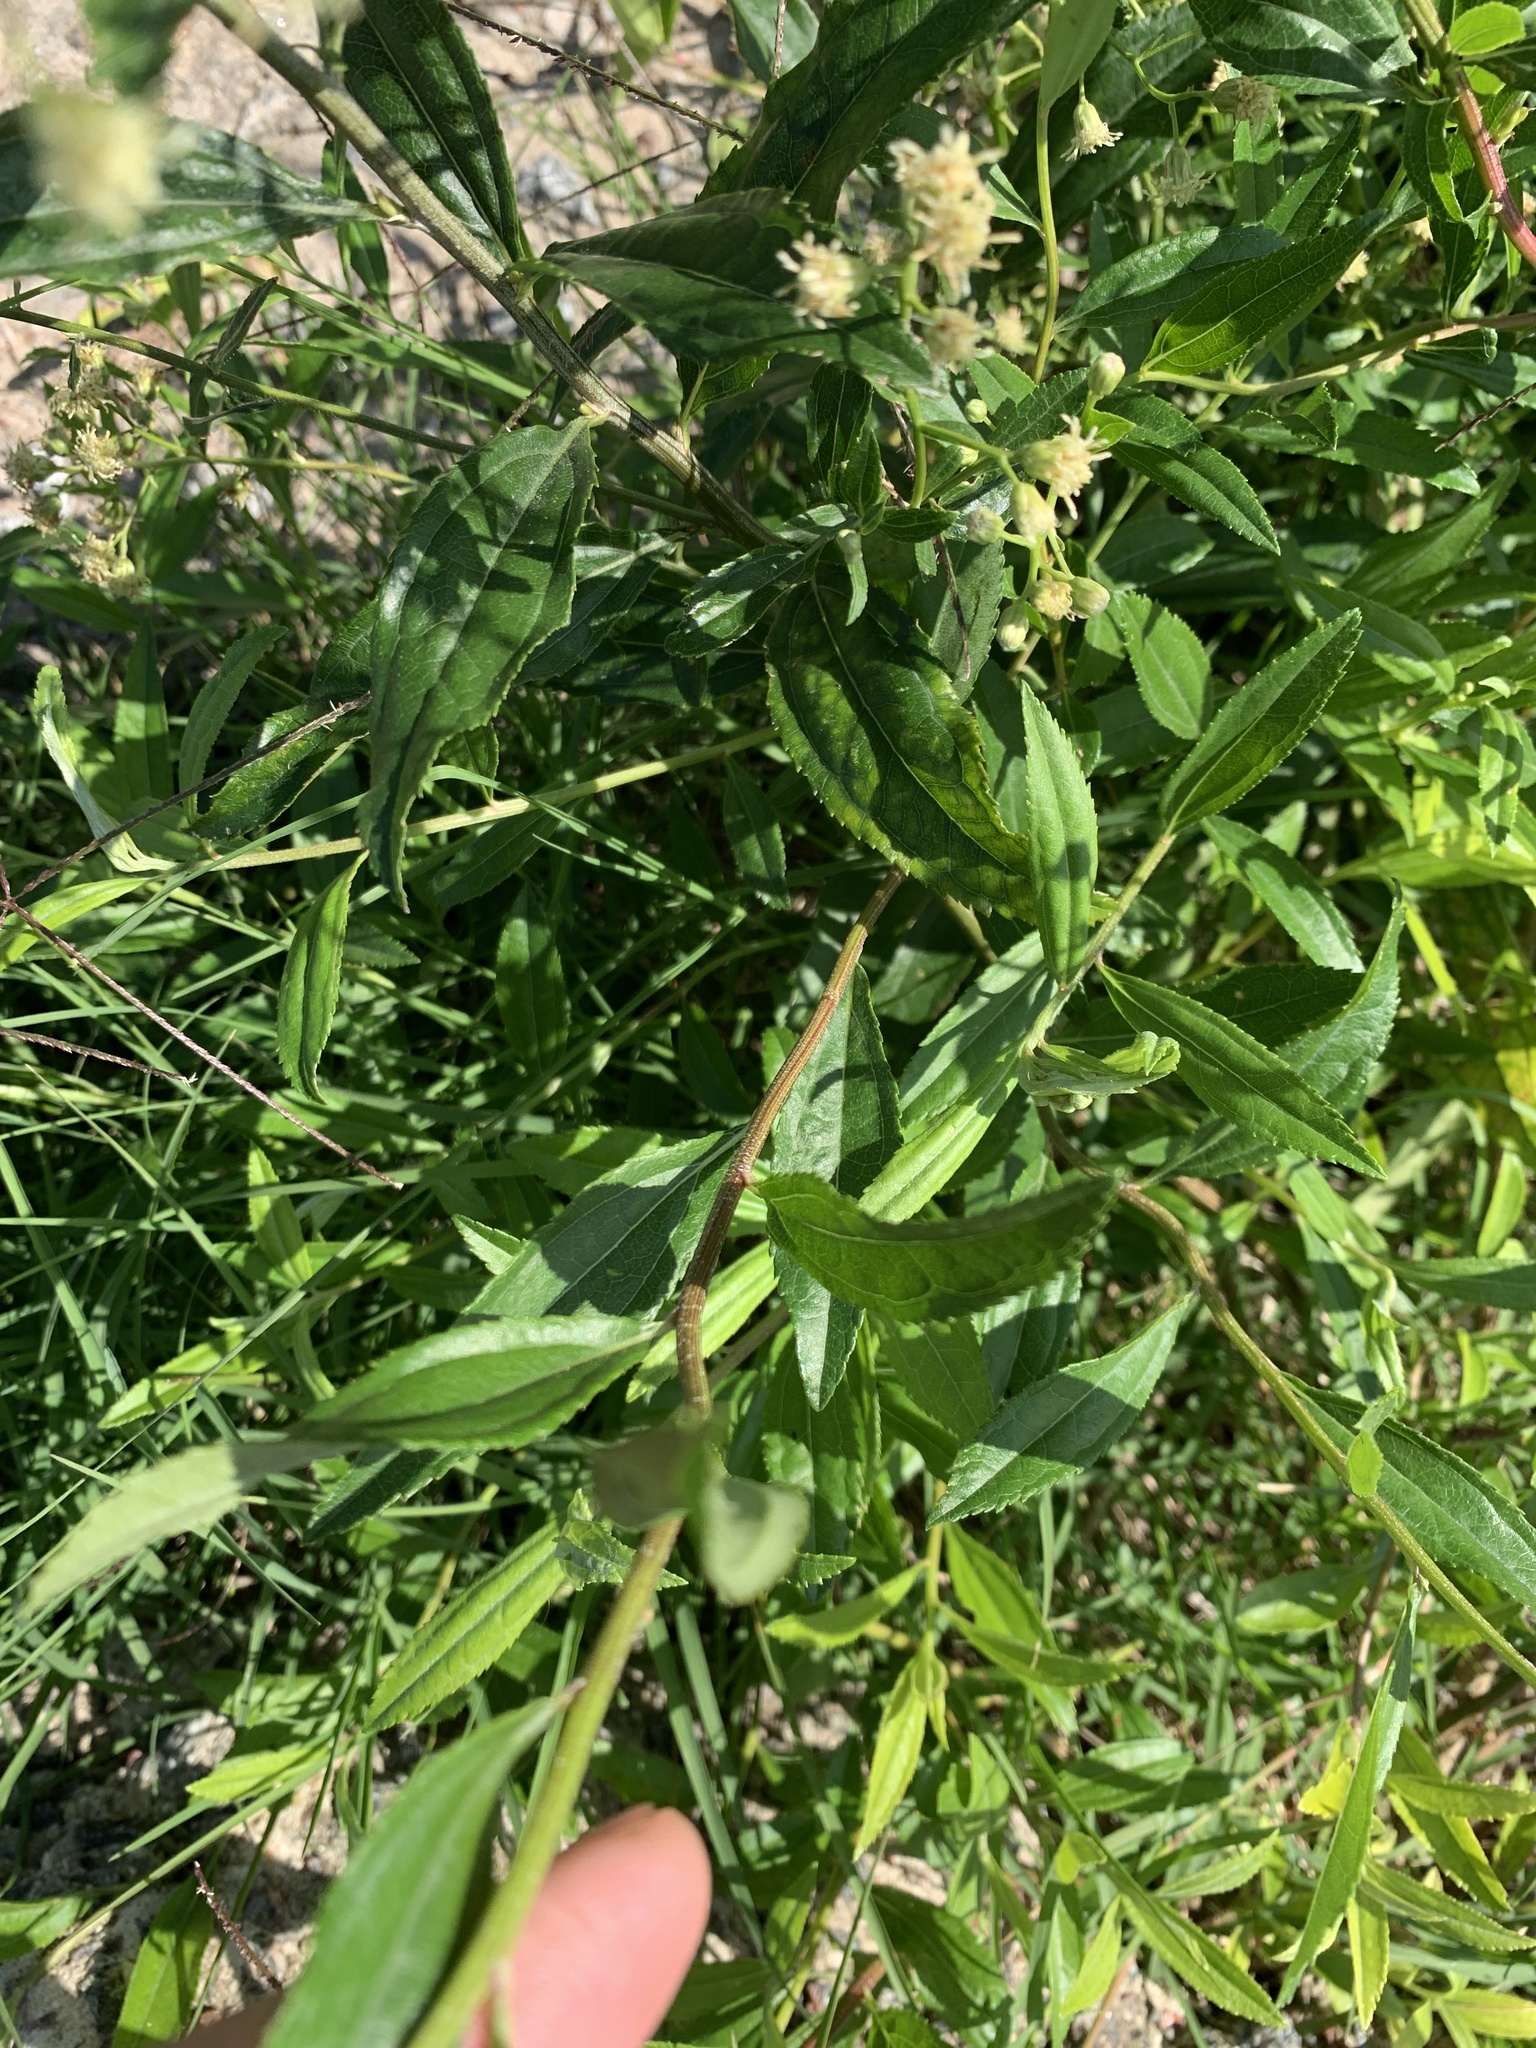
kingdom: Plantae
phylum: Tracheophyta
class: Magnoliopsida
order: Asterales
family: Asteraceae
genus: Baccharis
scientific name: Baccharis glutinosa
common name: Saltmarsh baccharis
